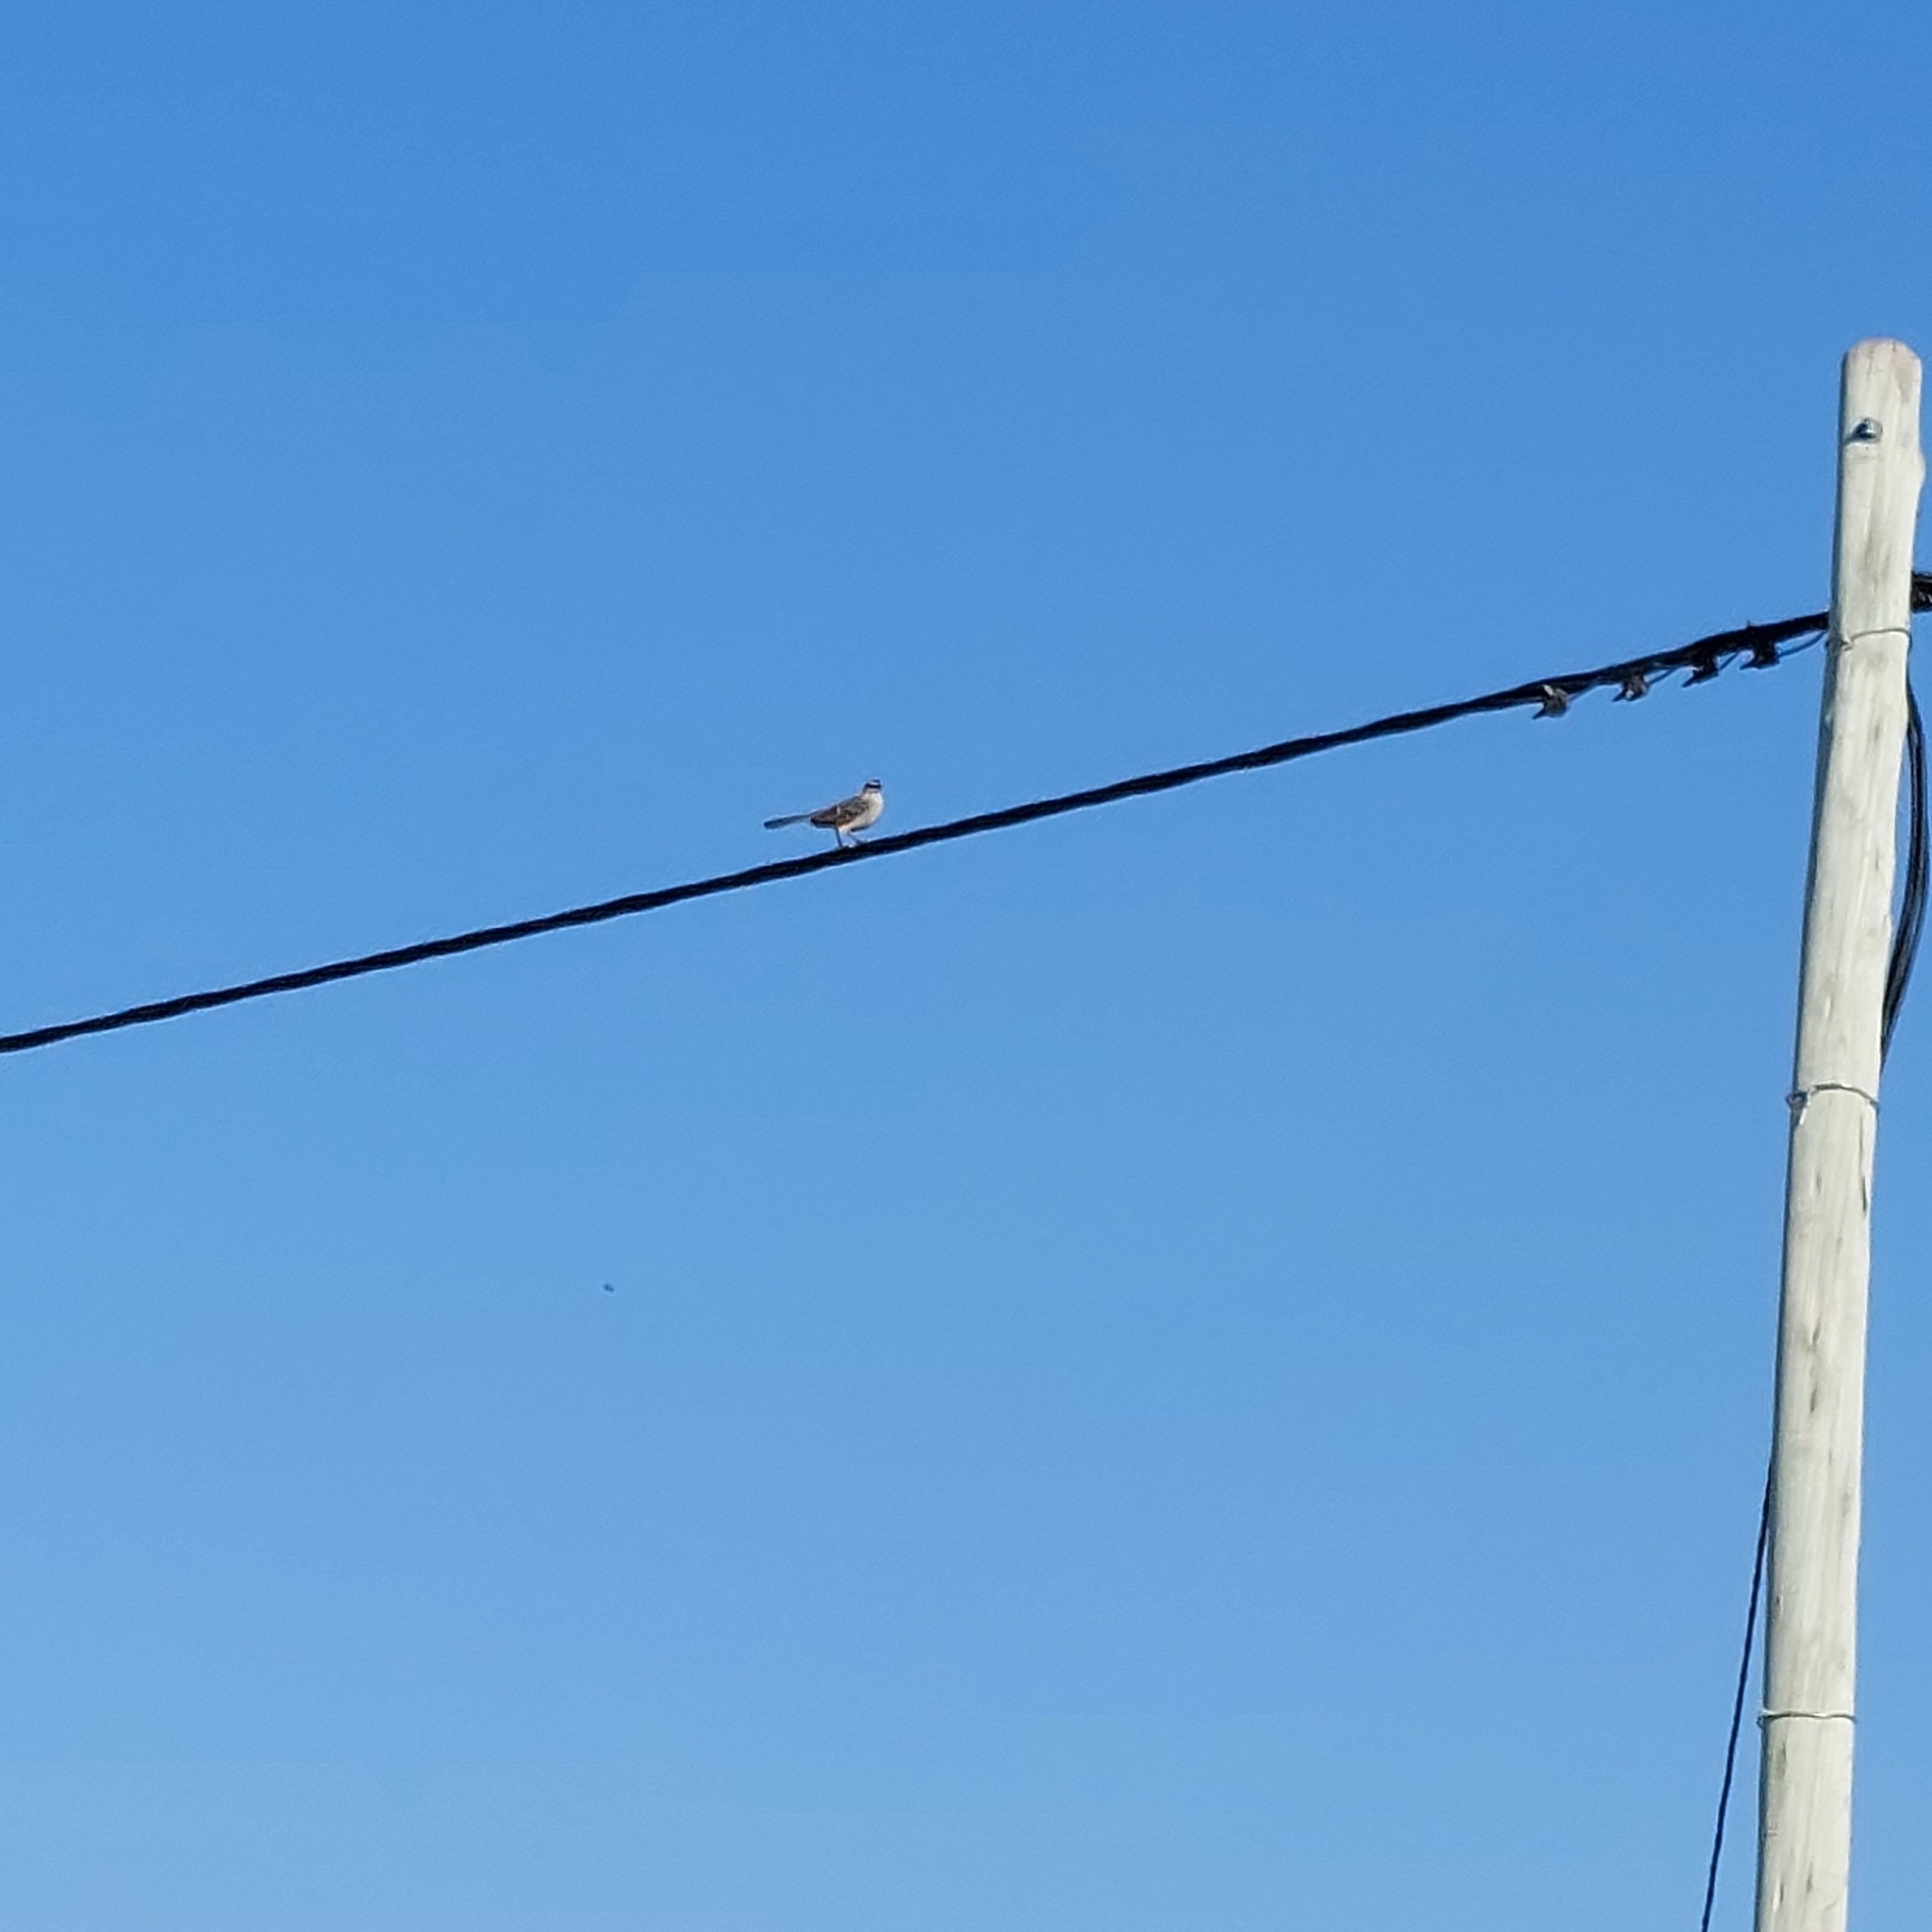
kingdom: Animalia
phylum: Chordata
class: Aves
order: Passeriformes
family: Mimidae
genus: Mimus
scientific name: Mimus saturninus
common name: Chalk-browed mockingbird
